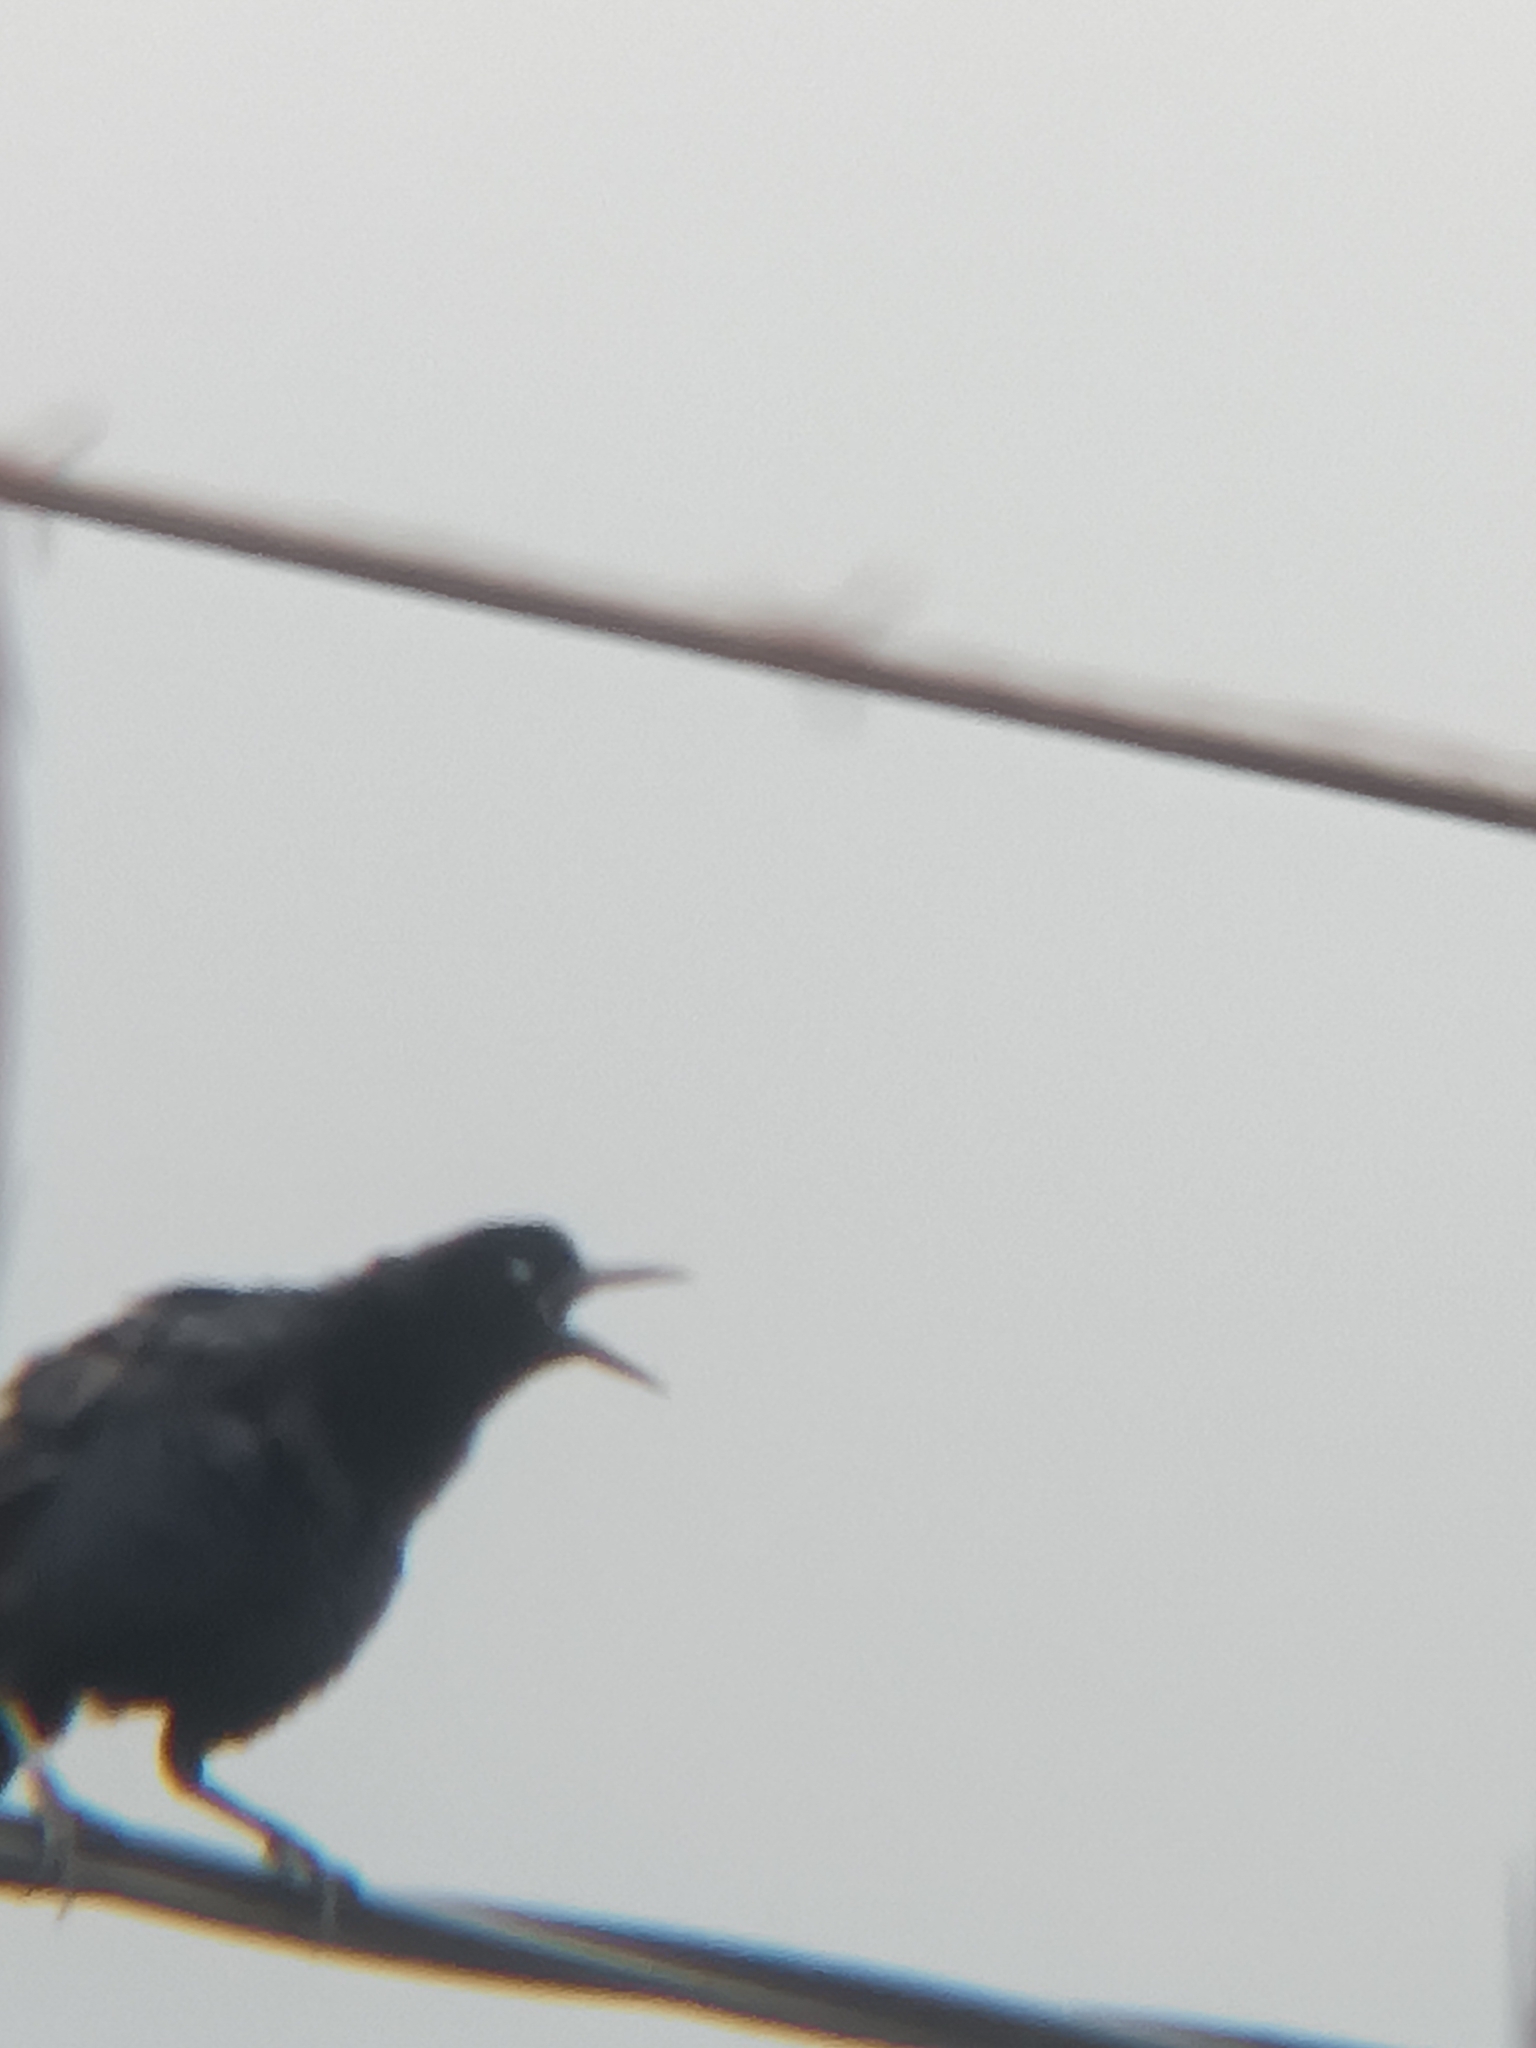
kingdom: Animalia
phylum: Chordata
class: Aves
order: Passeriformes
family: Icteridae
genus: Quiscalus
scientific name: Quiscalus mexicanus
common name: Great-tailed grackle
